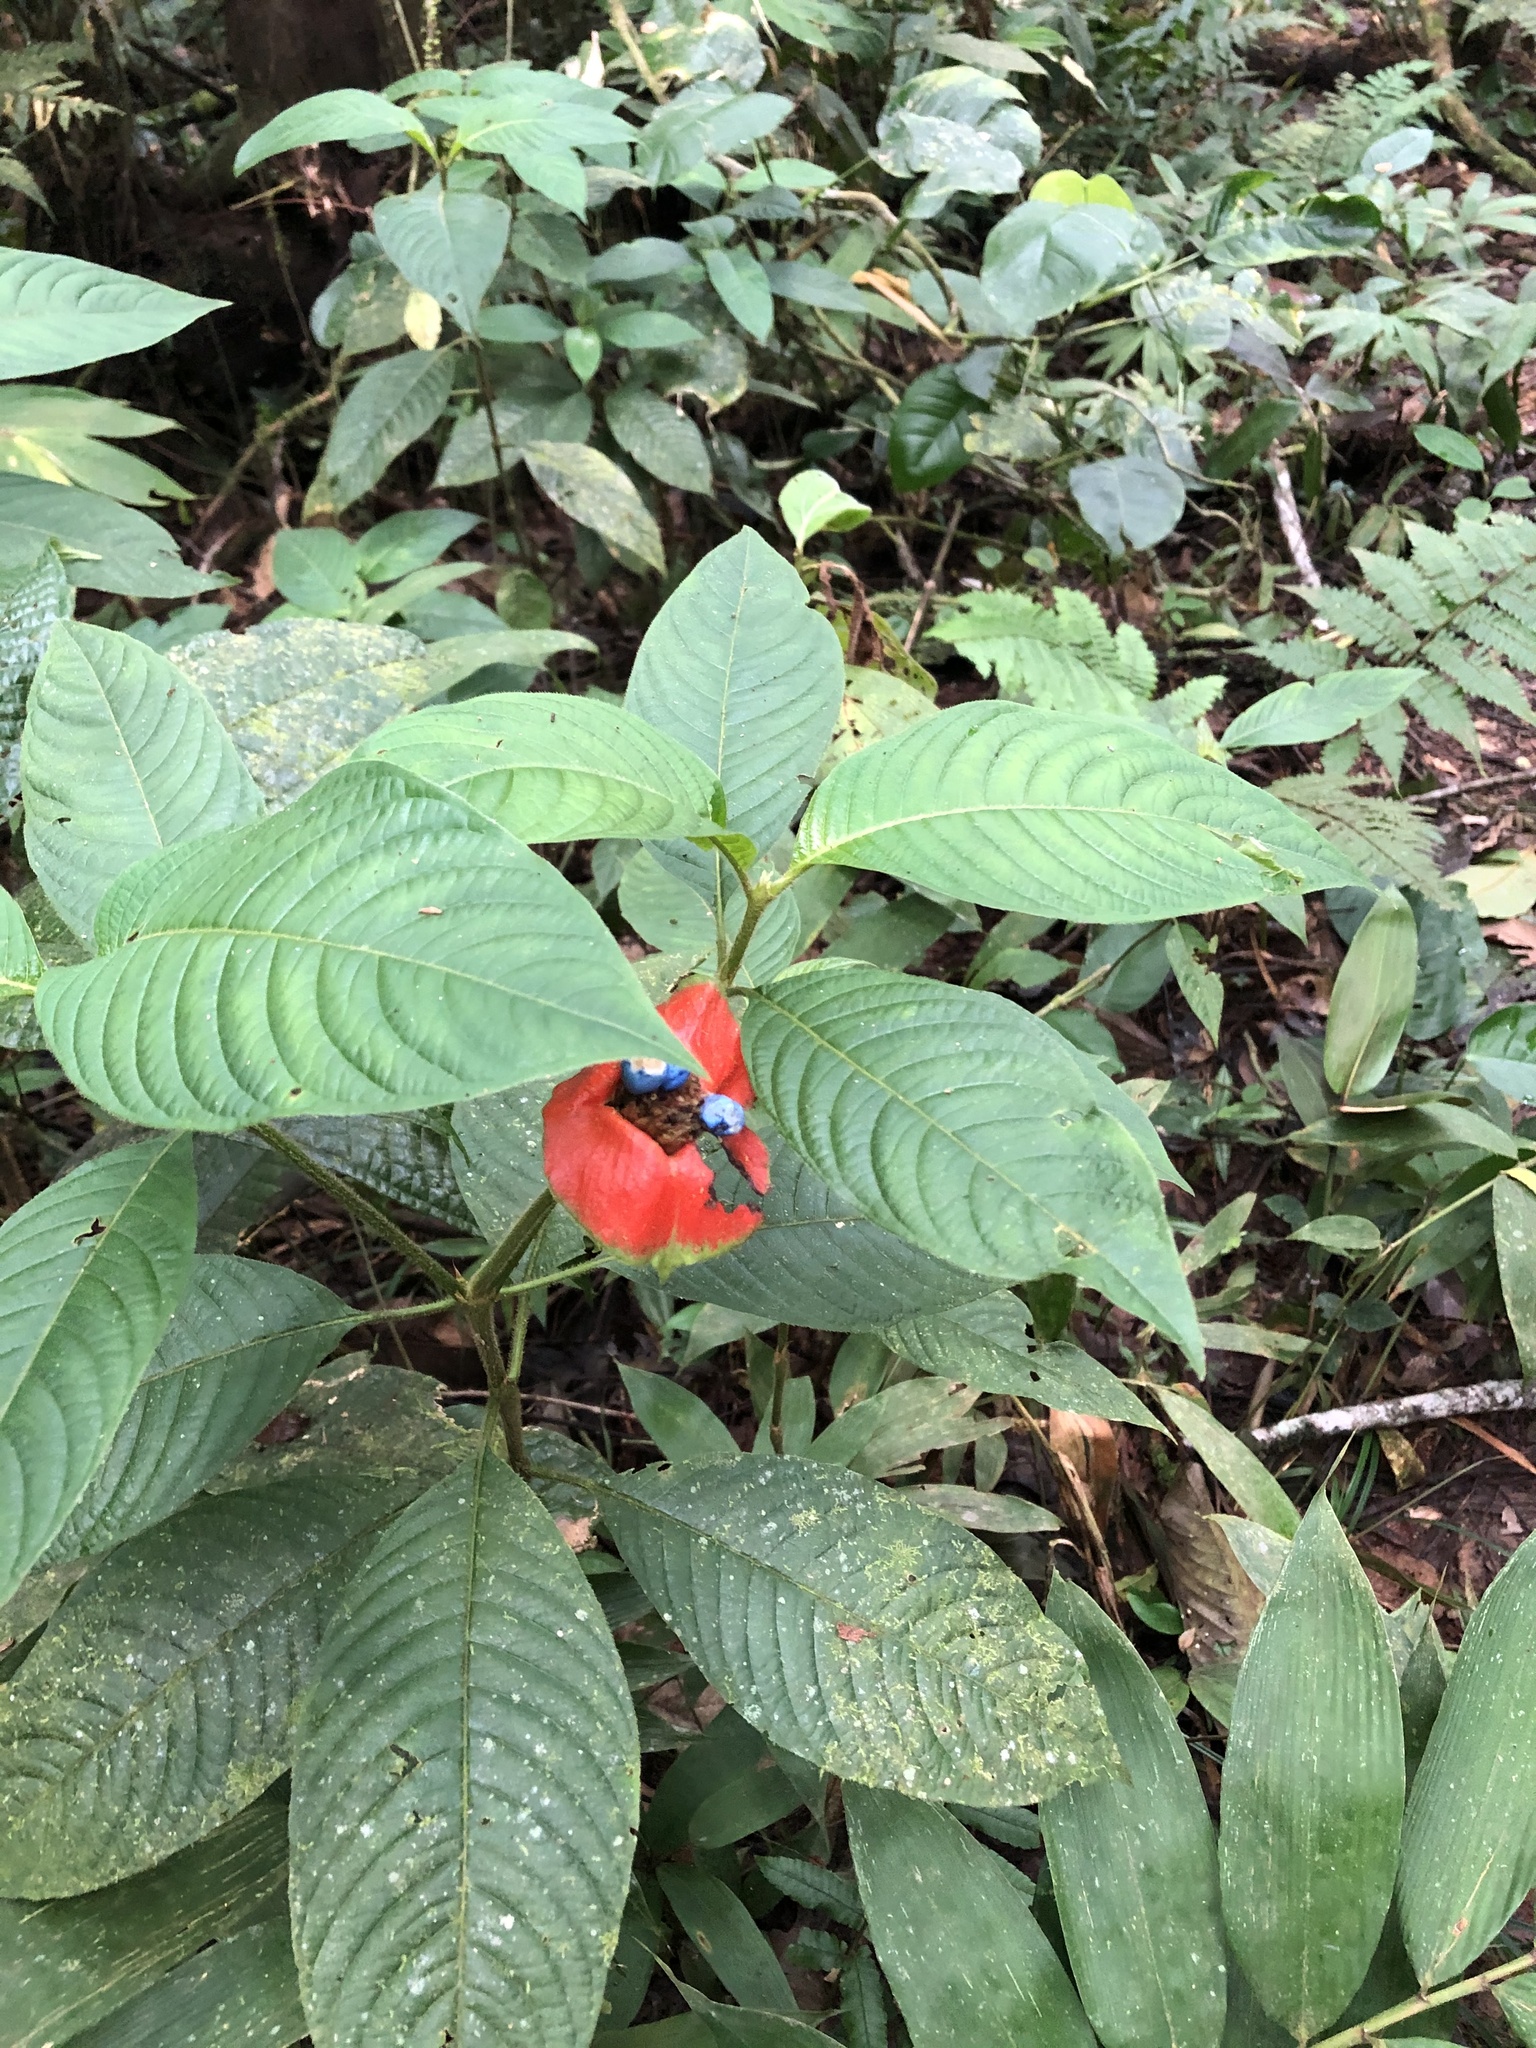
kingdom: Plantae
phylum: Tracheophyta
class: Magnoliopsida
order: Gentianales
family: Rubiaceae
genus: Palicourea
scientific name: Palicourea tomentosa
